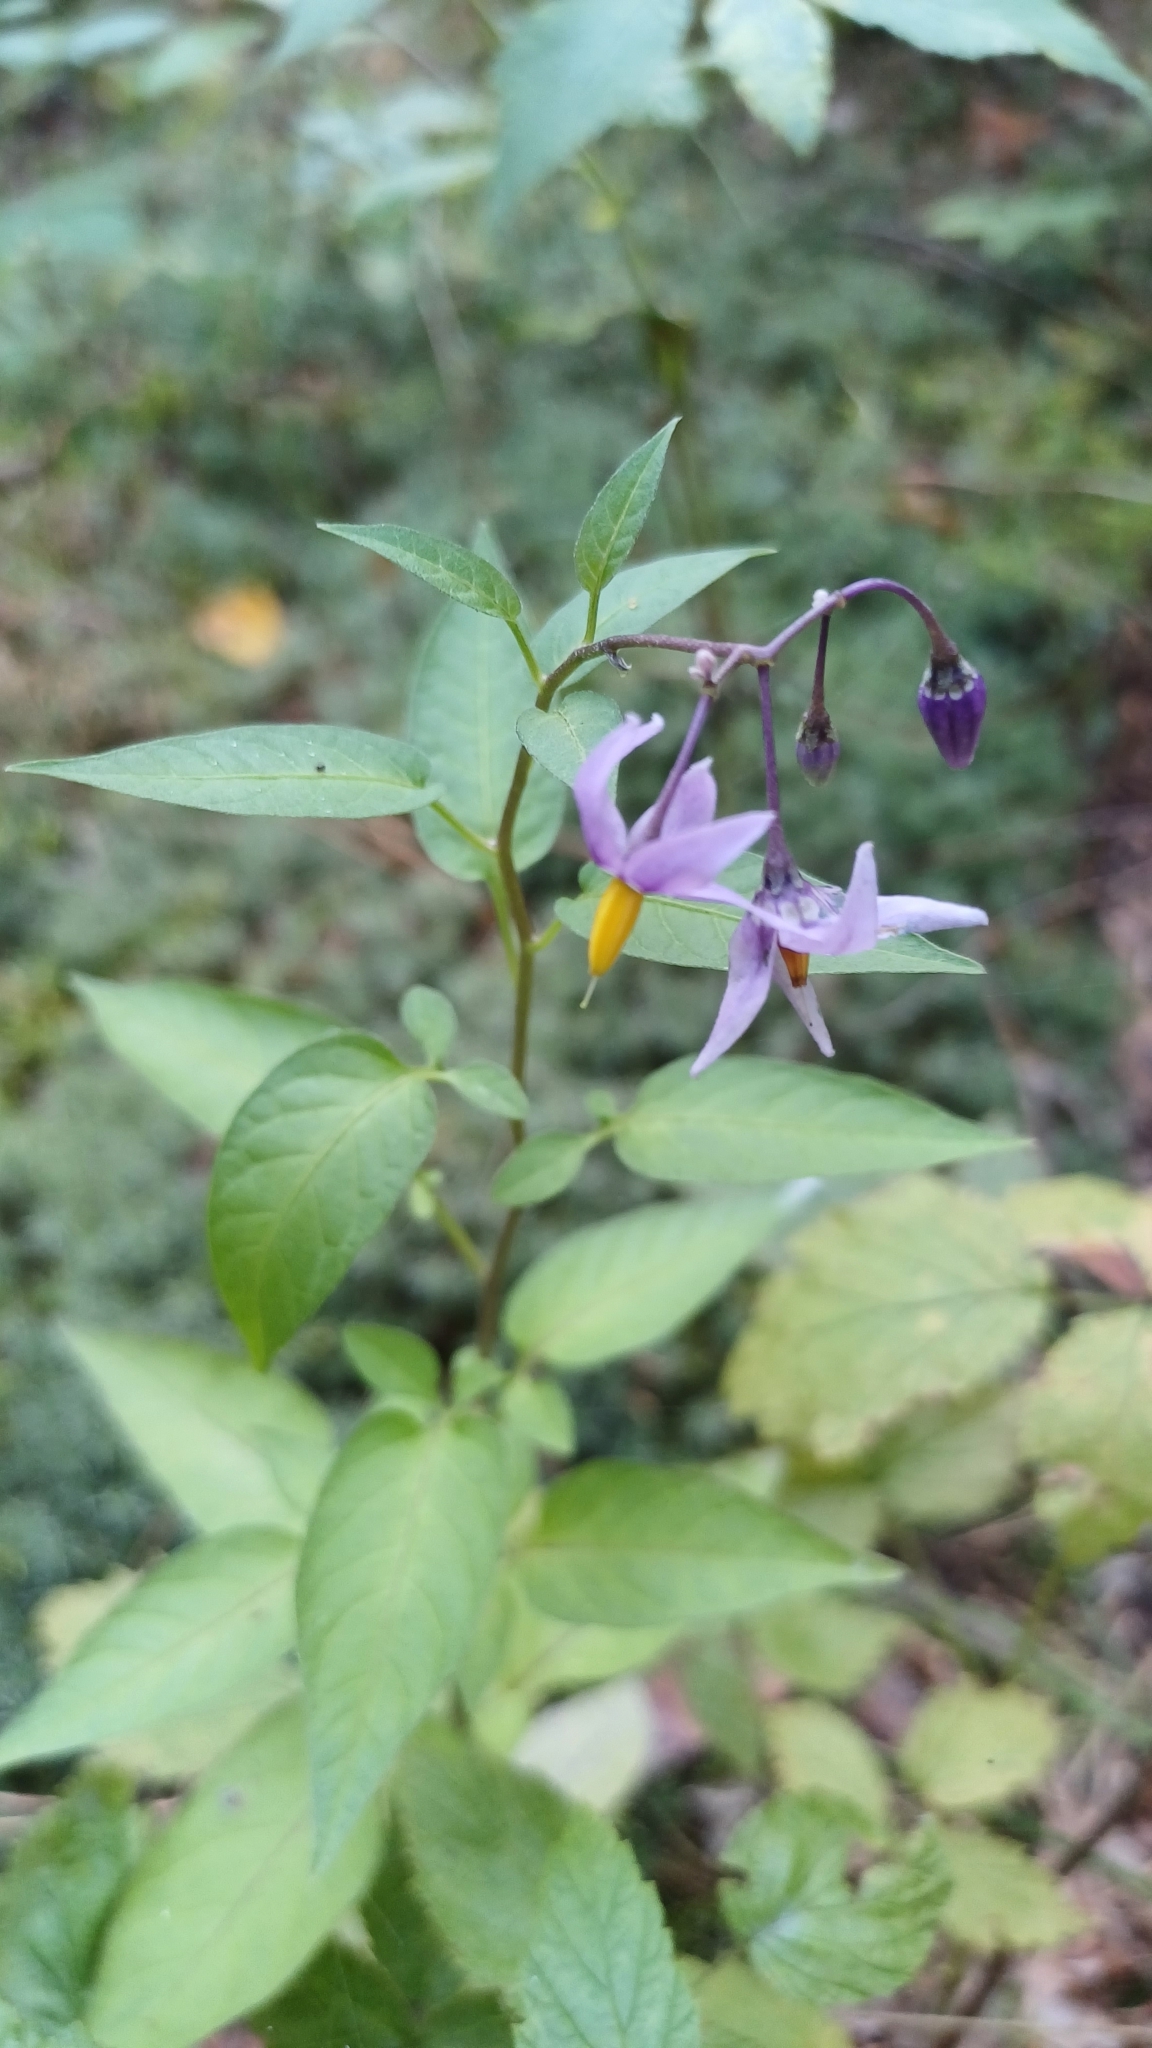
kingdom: Plantae
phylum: Tracheophyta
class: Magnoliopsida
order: Solanales
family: Solanaceae
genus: Solanum
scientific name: Solanum dulcamara
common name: Climbing nightshade
